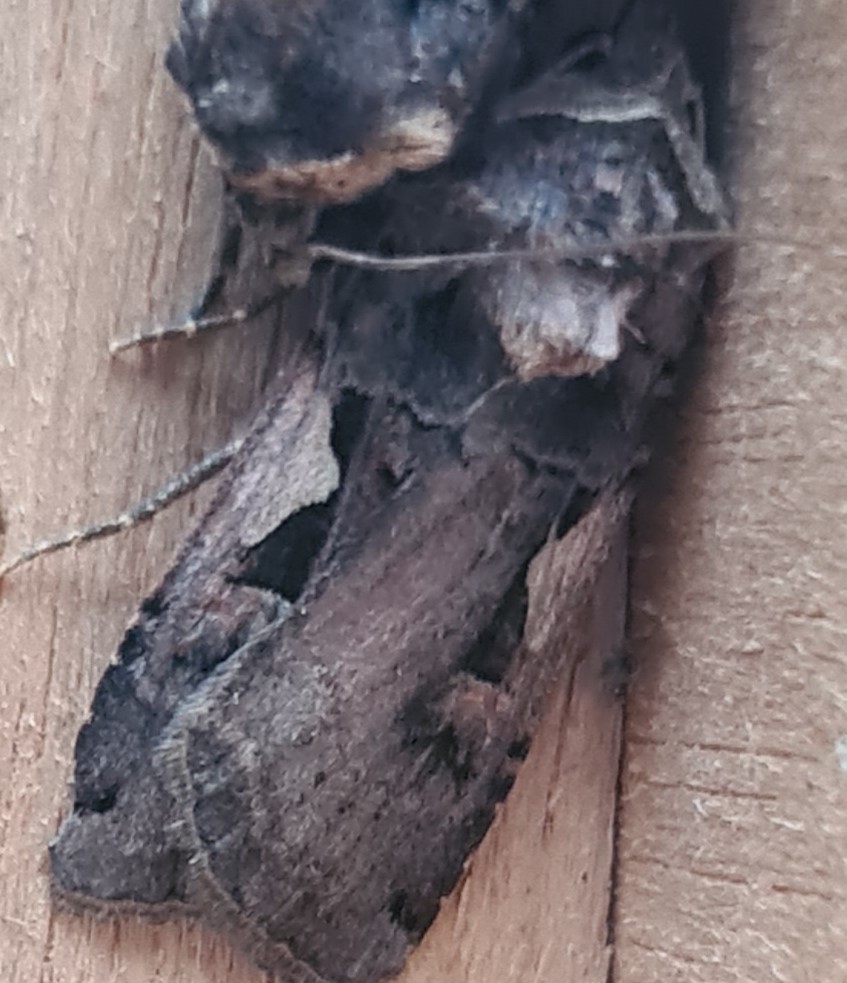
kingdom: Animalia
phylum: Arthropoda
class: Insecta
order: Lepidoptera
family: Noctuidae
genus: Xestia
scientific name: Xestia c-nigrum
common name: Setaceous hebrew character
